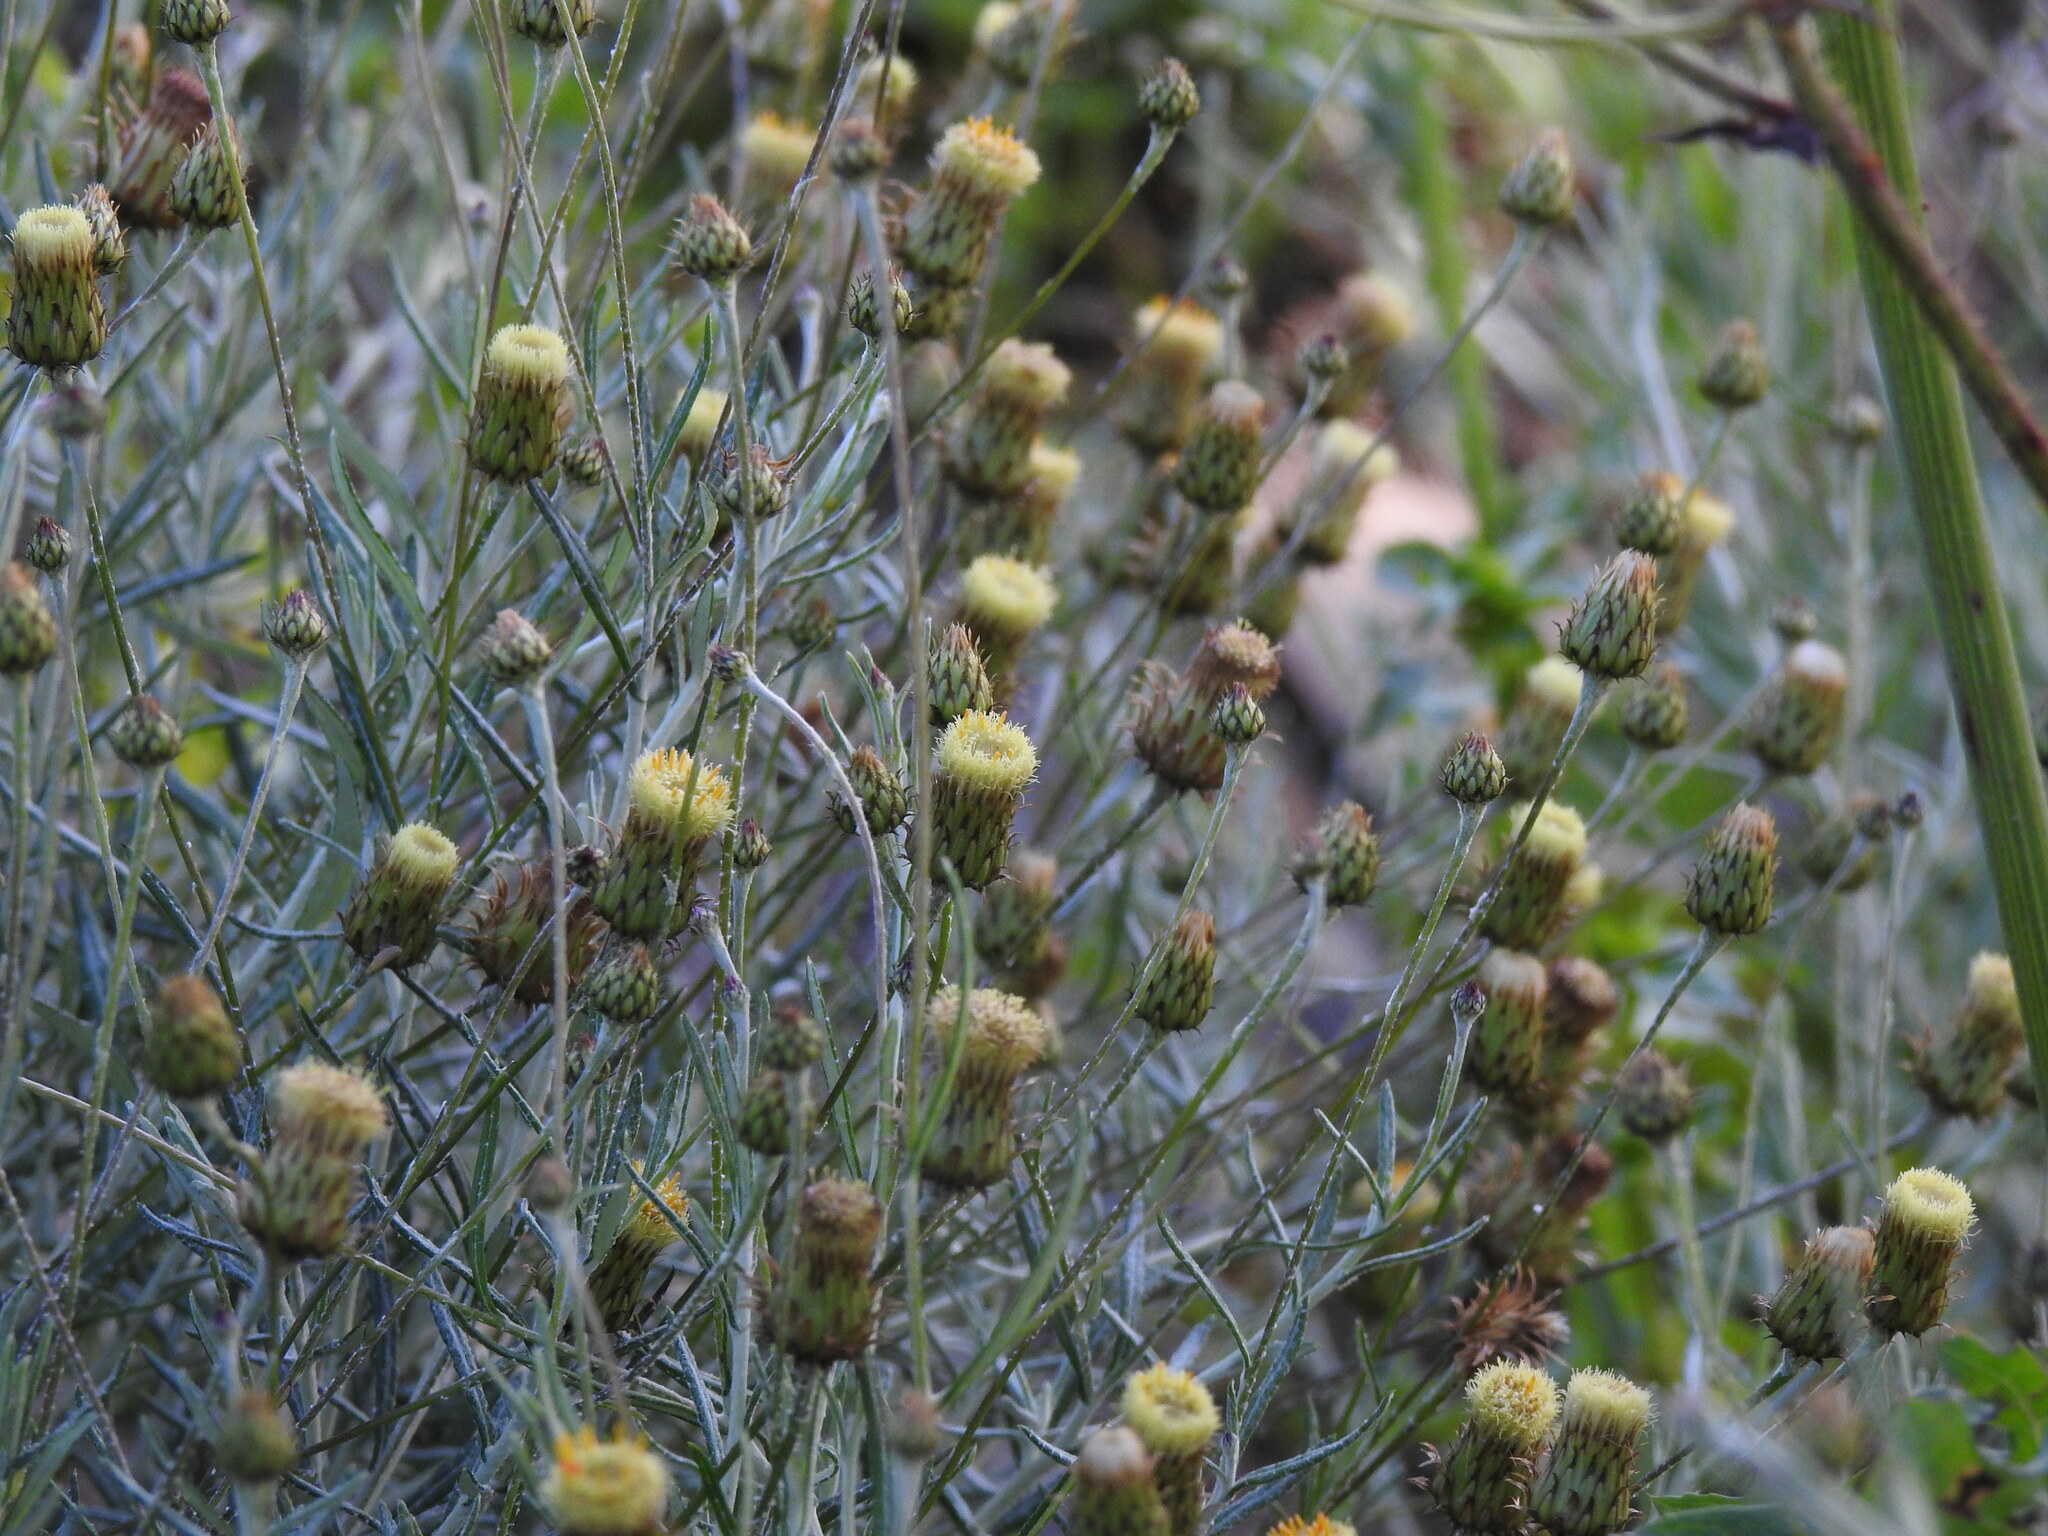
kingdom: Plantae
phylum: Tracheophyta
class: Magnoliopsida
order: Asterales
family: Asteraceae
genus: Phagnalon
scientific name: Phagnalon saxatile
